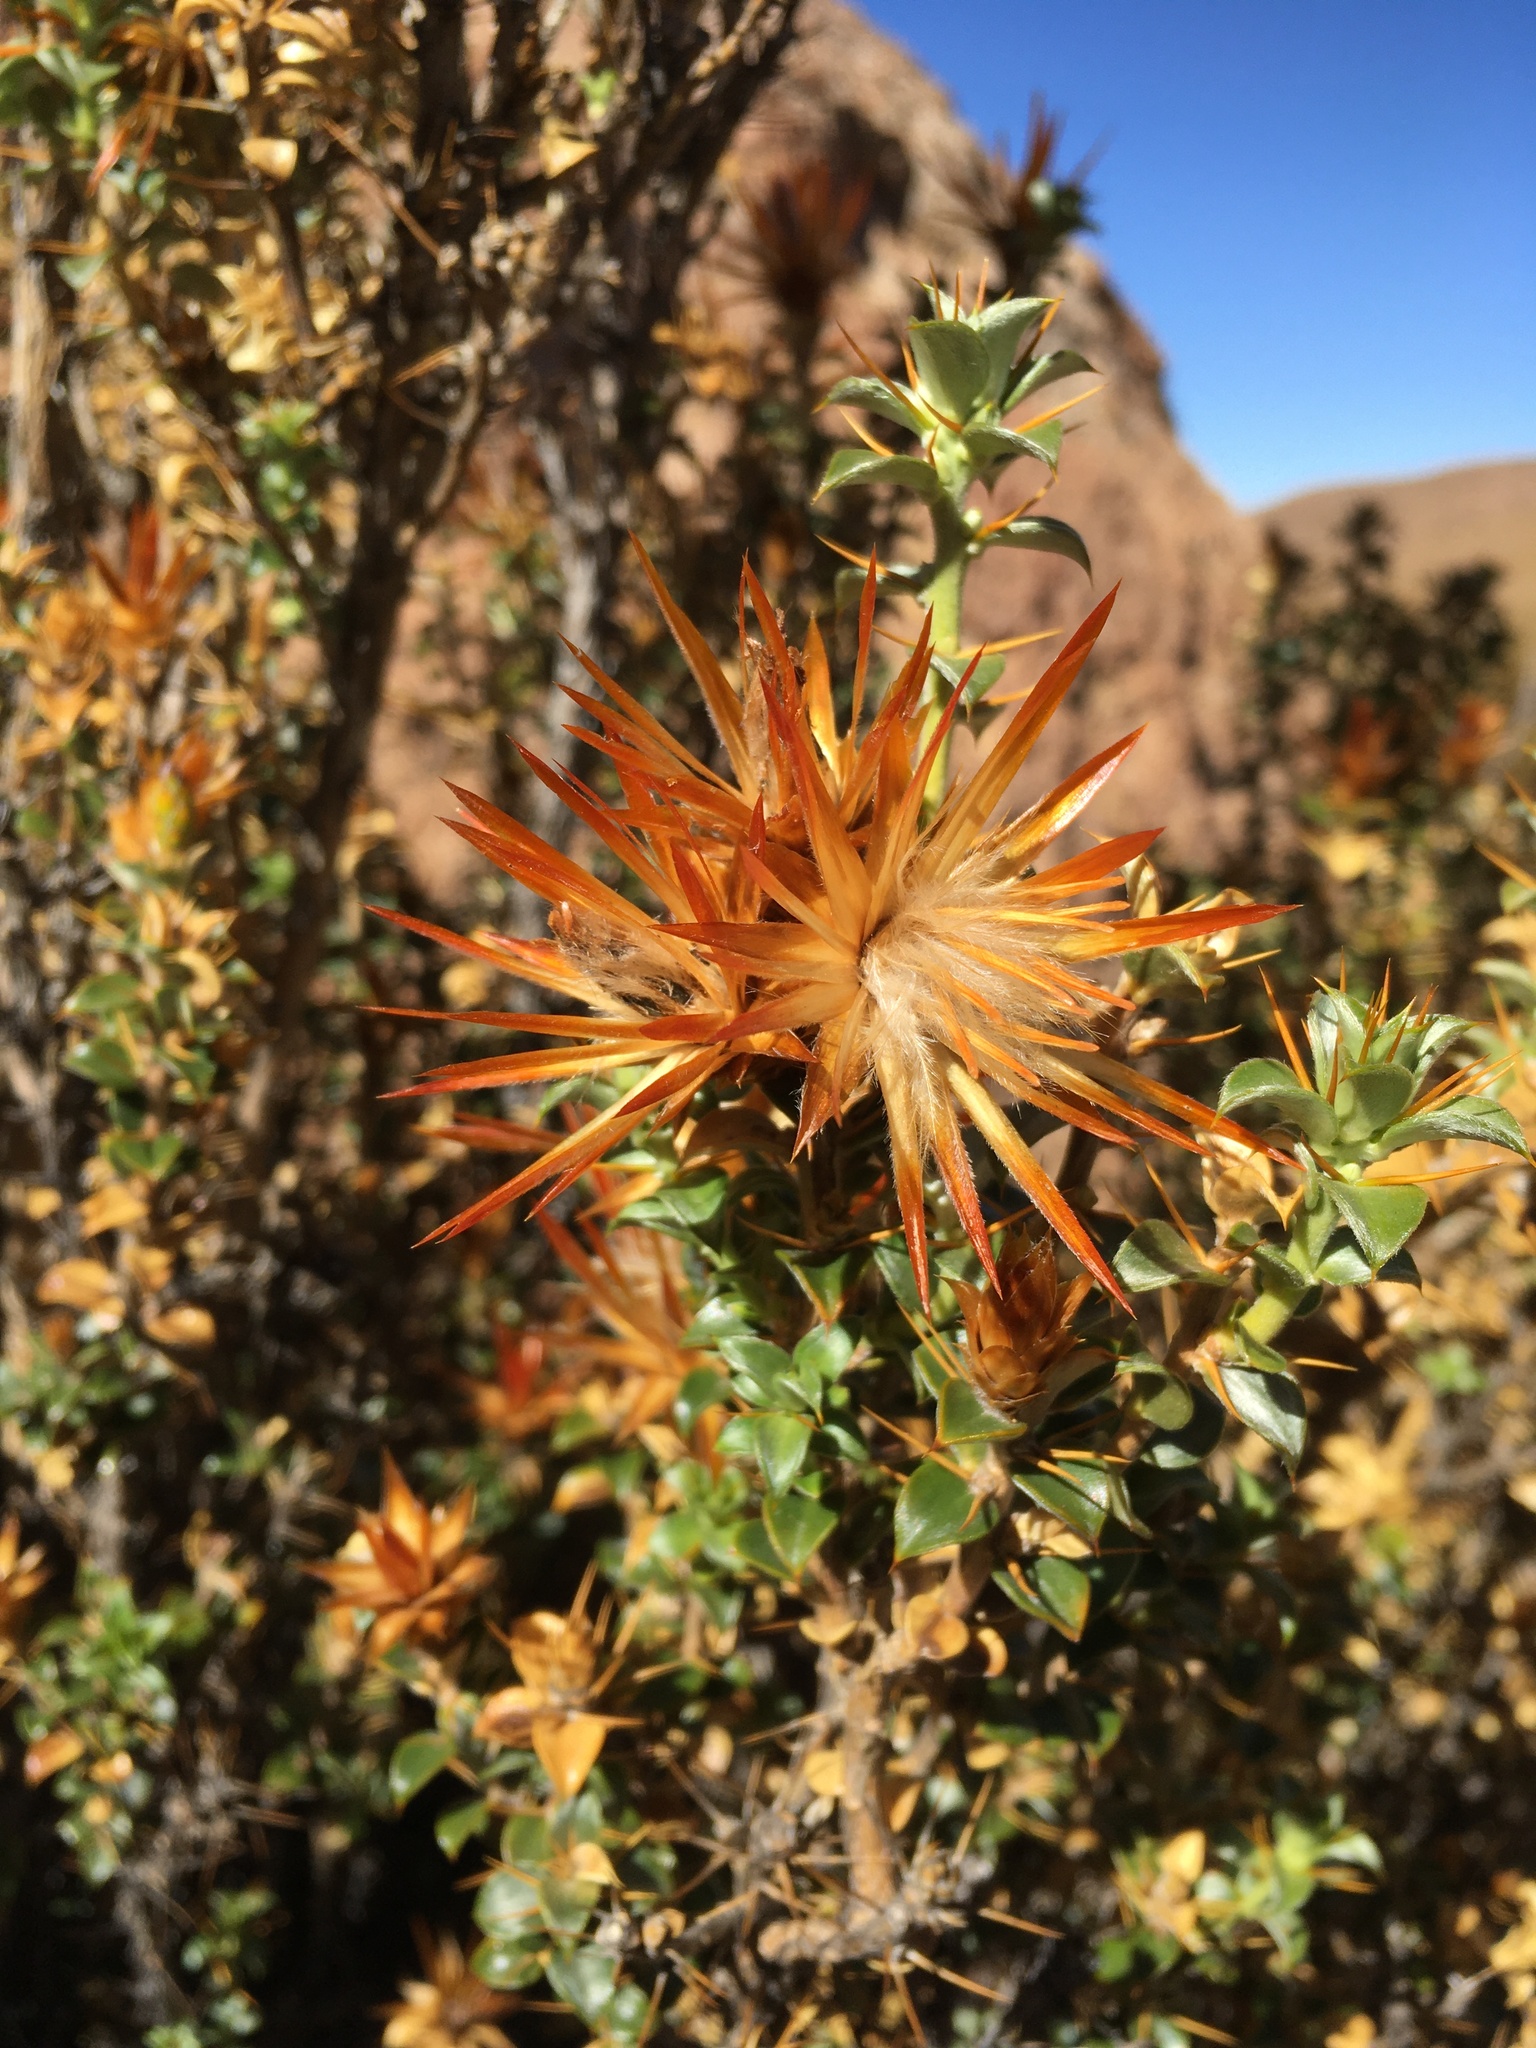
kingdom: Plantae
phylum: Tracheophyta
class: Magnoliopsida
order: Asterales
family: Asteraceae
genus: Chuquiraga
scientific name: Chuquiraga spinosa
